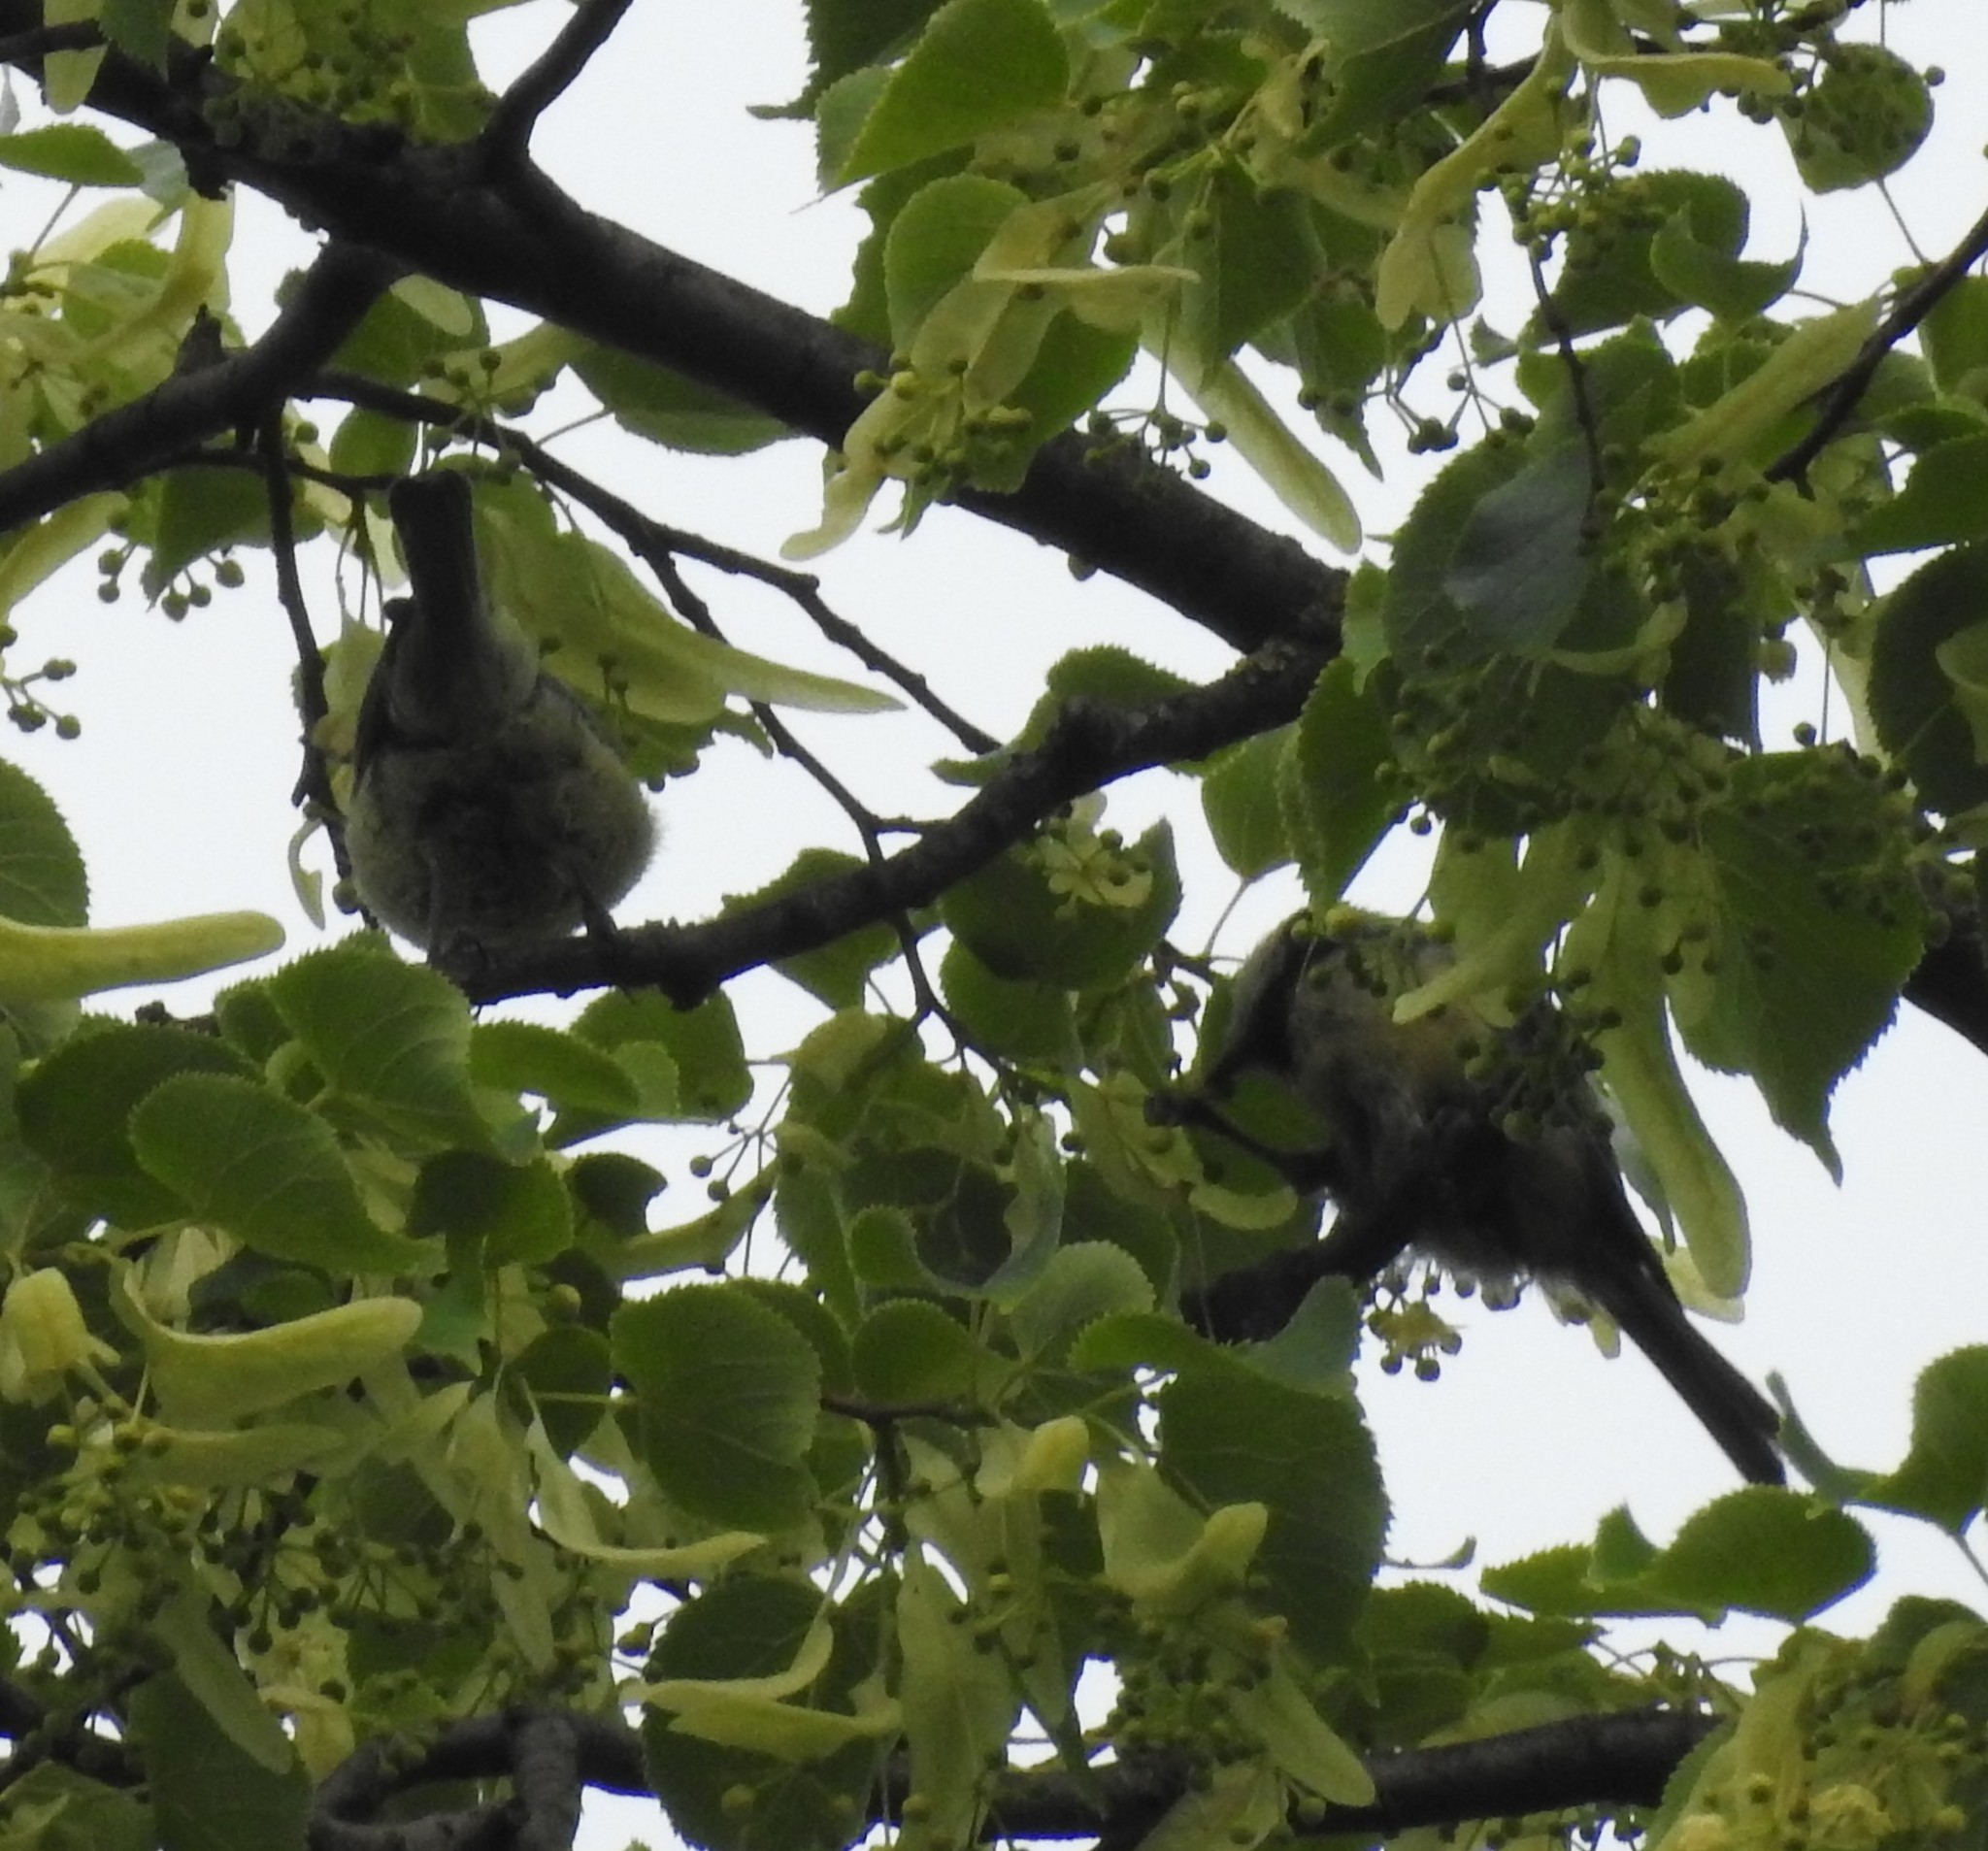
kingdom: Animalia
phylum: Chordata
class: Aves
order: Passeriformes
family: Paridae
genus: Cyanistes
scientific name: Cyanistes caeruleus
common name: Eurasian blue tit
